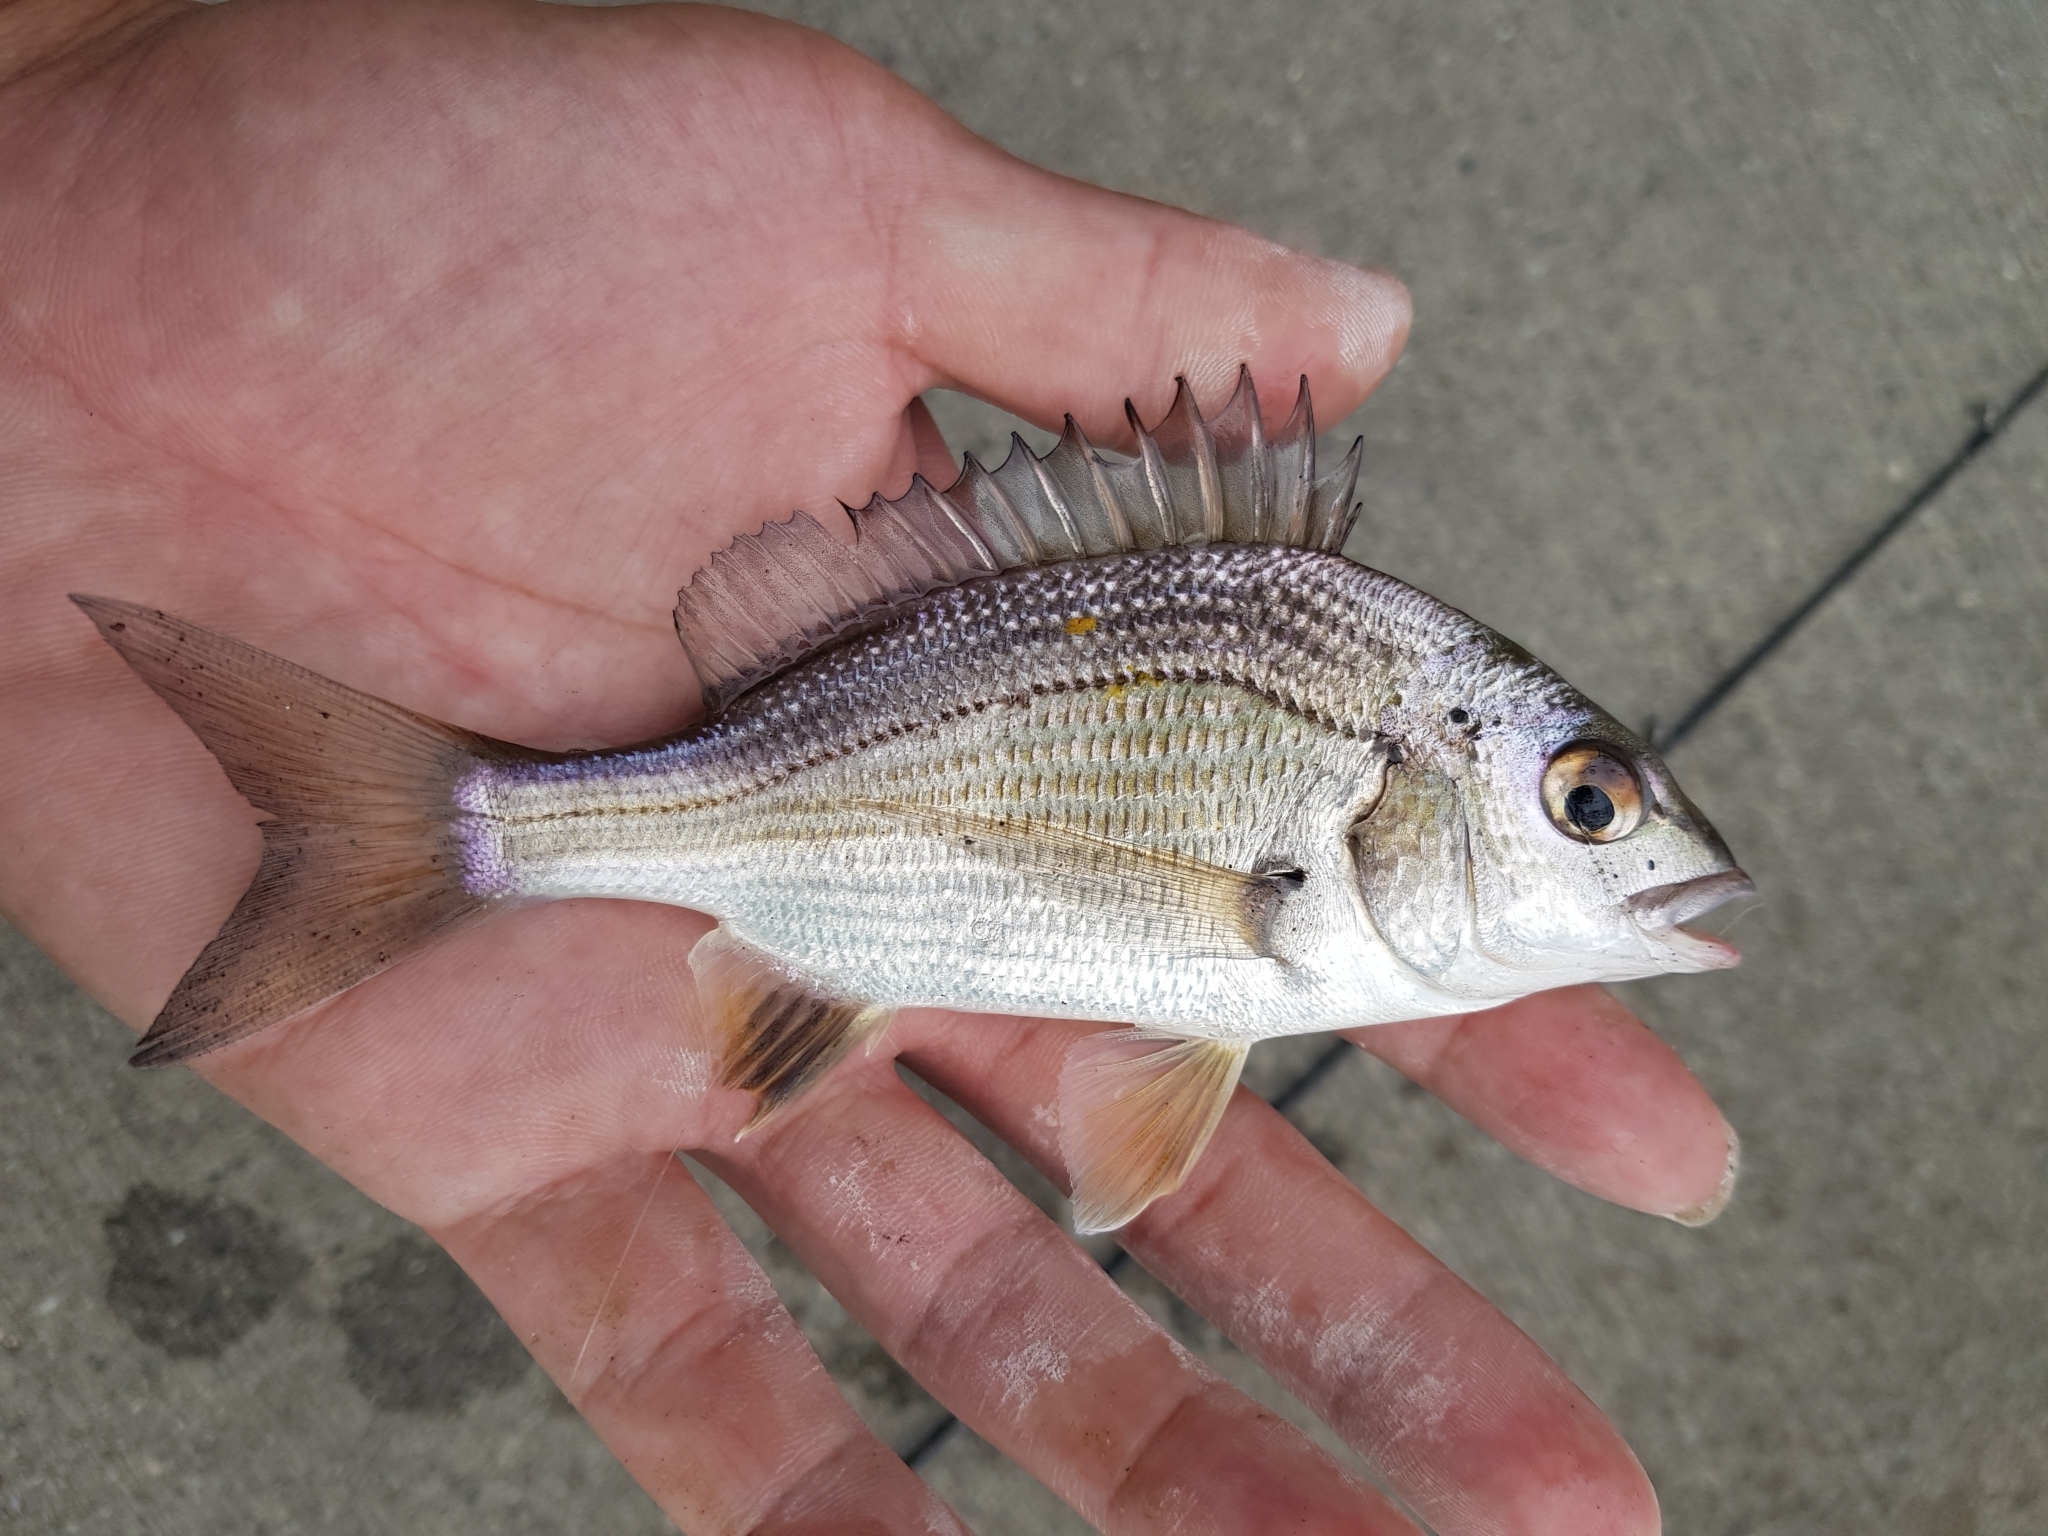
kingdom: Animalia
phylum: Chordata
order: Perciformes
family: Sparidae
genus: Acanthopagrus
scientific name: Acanthopagrus butcheri
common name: Black bream
